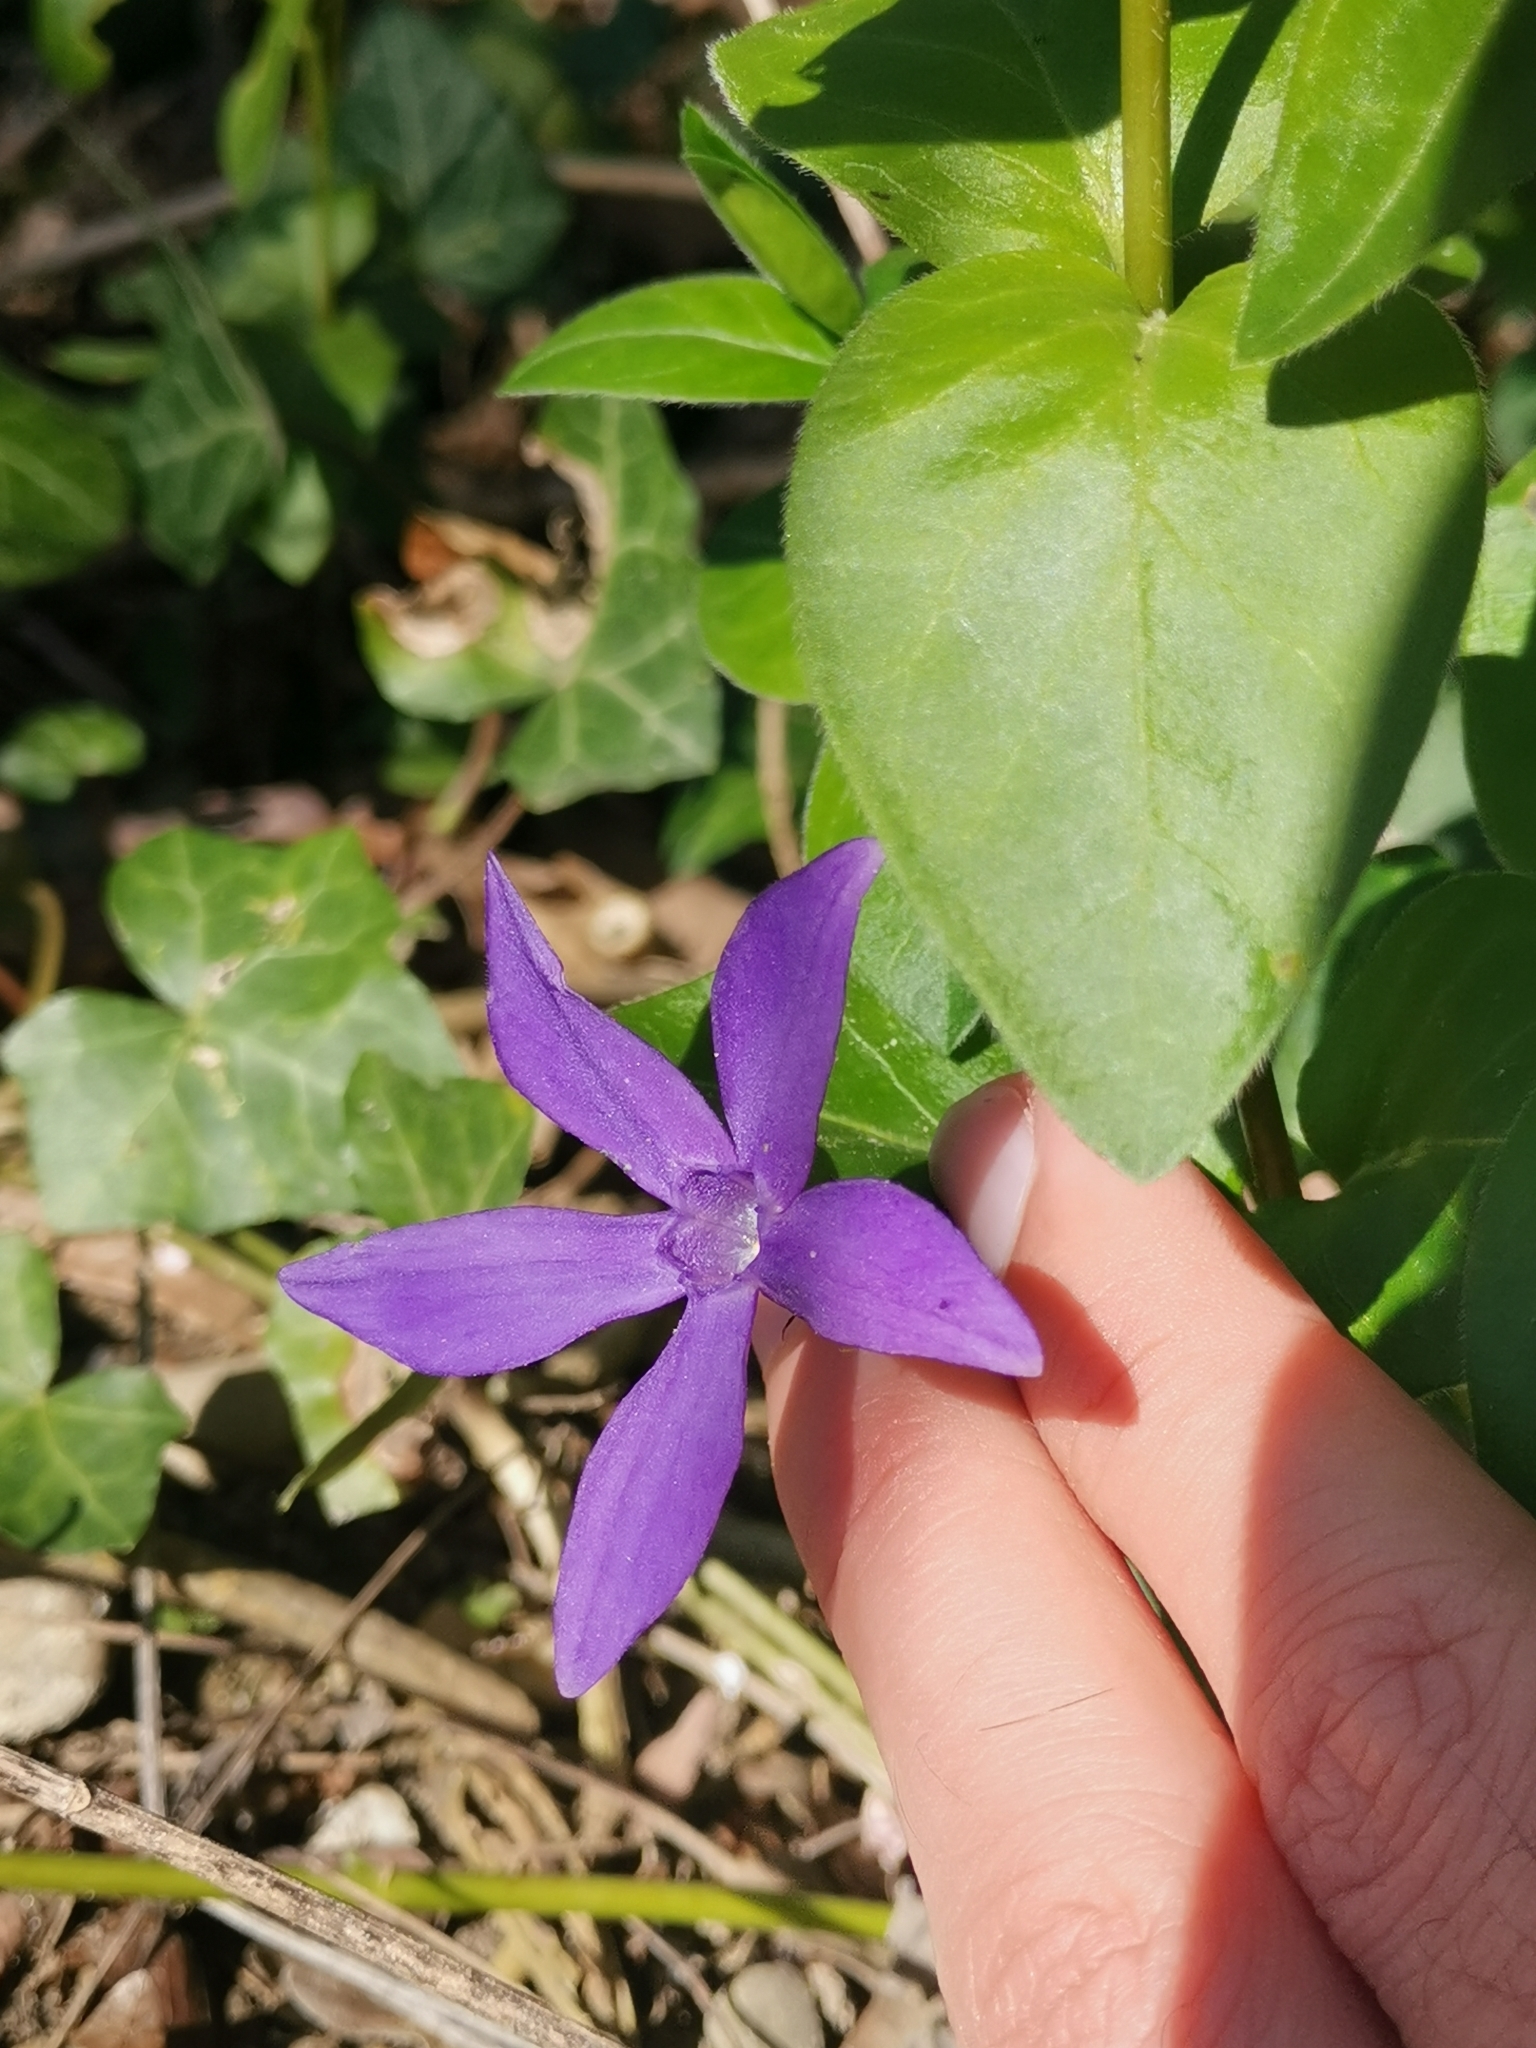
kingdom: Plantae
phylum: Tracheophyta
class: Magnoliopsida
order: Gentianales
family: Apocynaceae
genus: Vinca
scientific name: Vinca major
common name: Greater periwinkle
